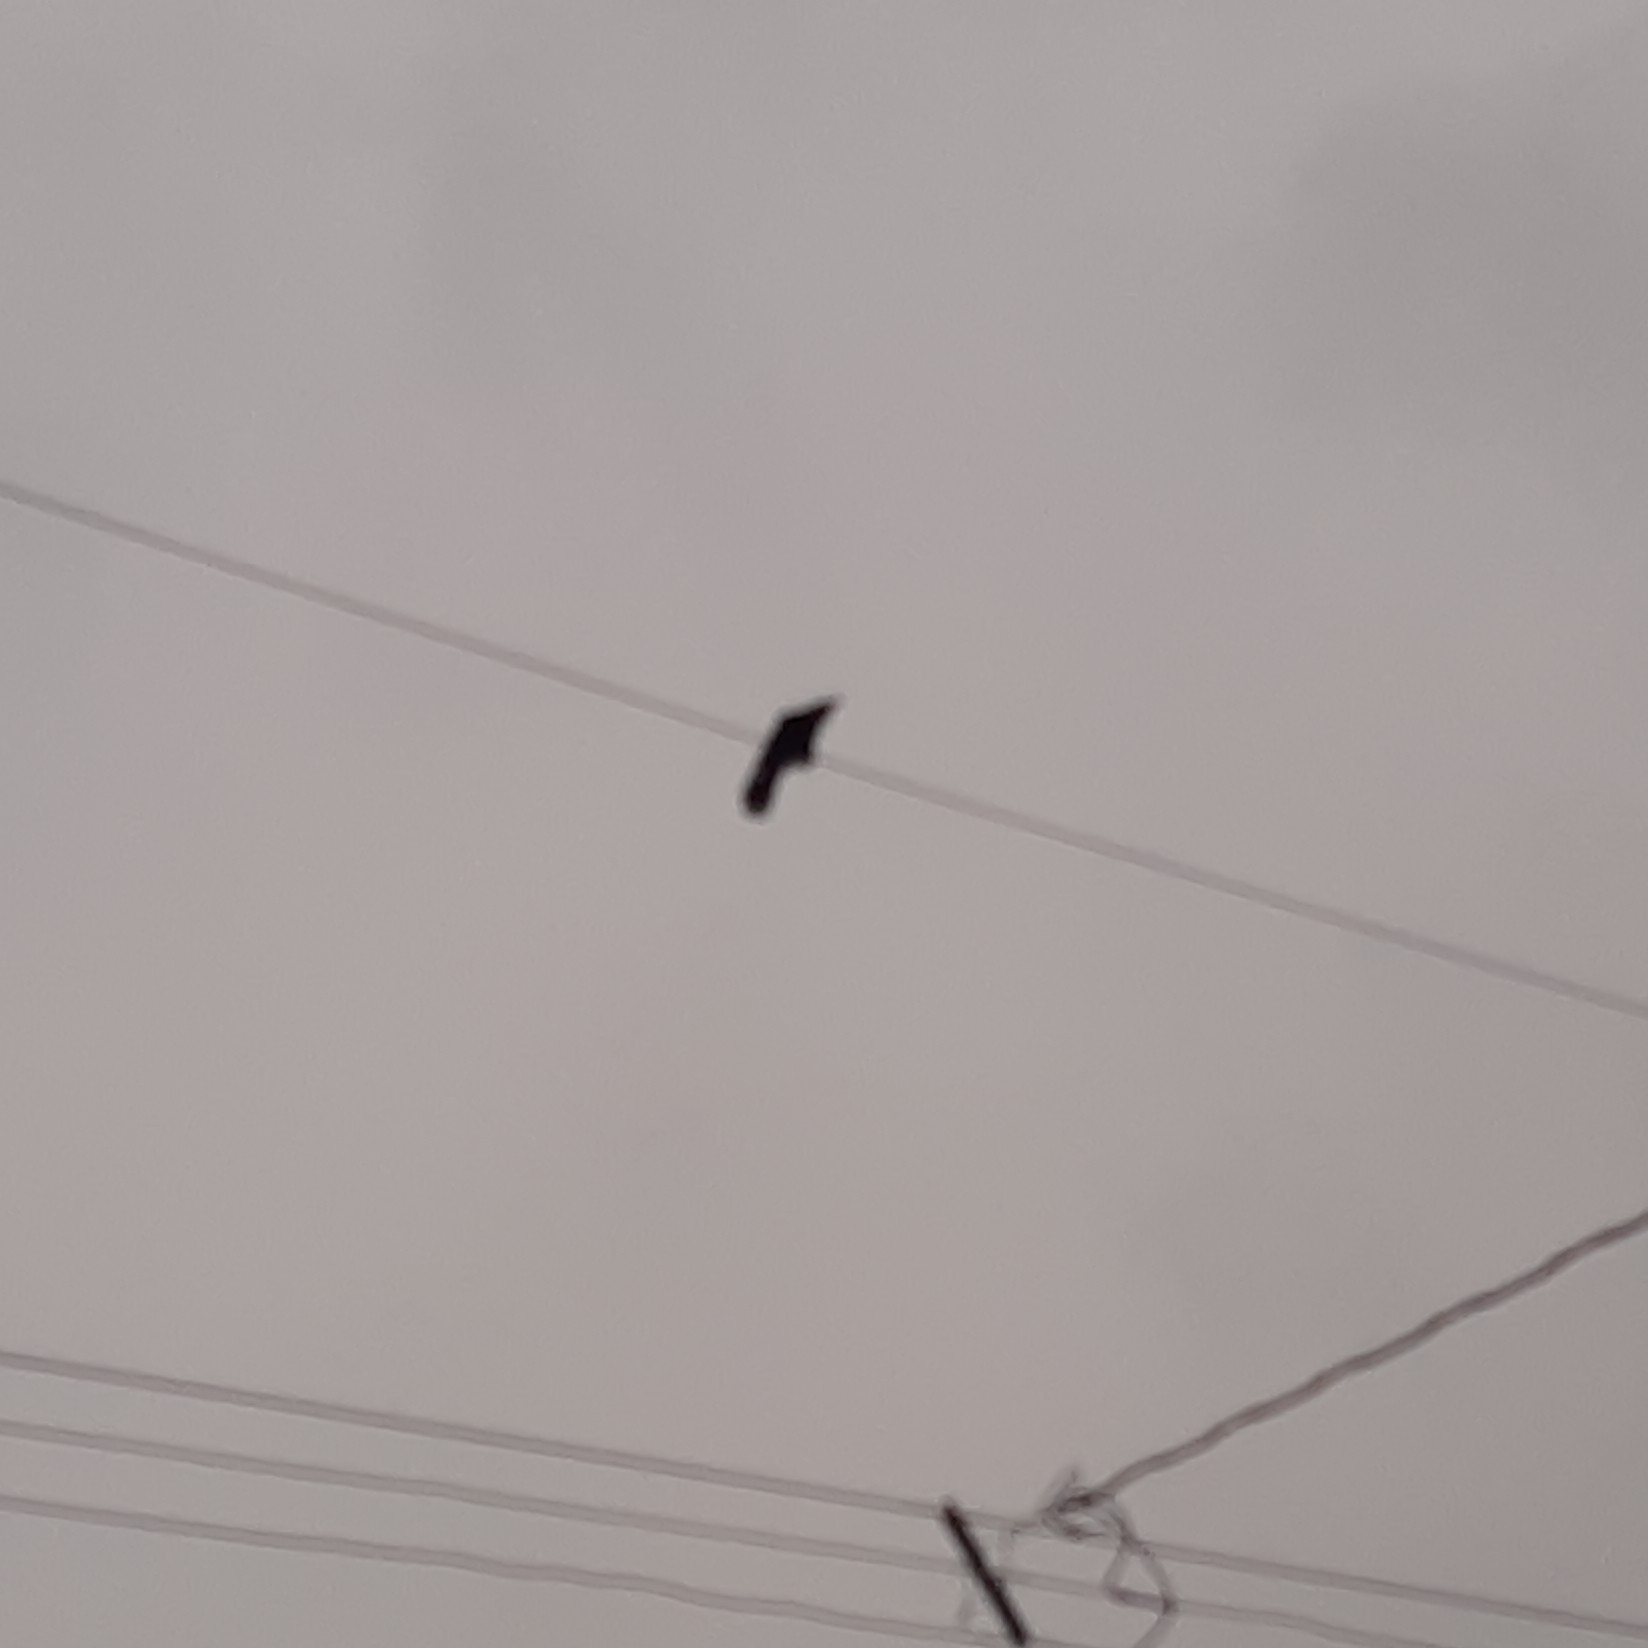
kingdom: Animalia
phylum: Chordata
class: Aves
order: Passeriformes
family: Corvidae
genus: Corvus
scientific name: Corvus brachyrhynchos
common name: American crow
